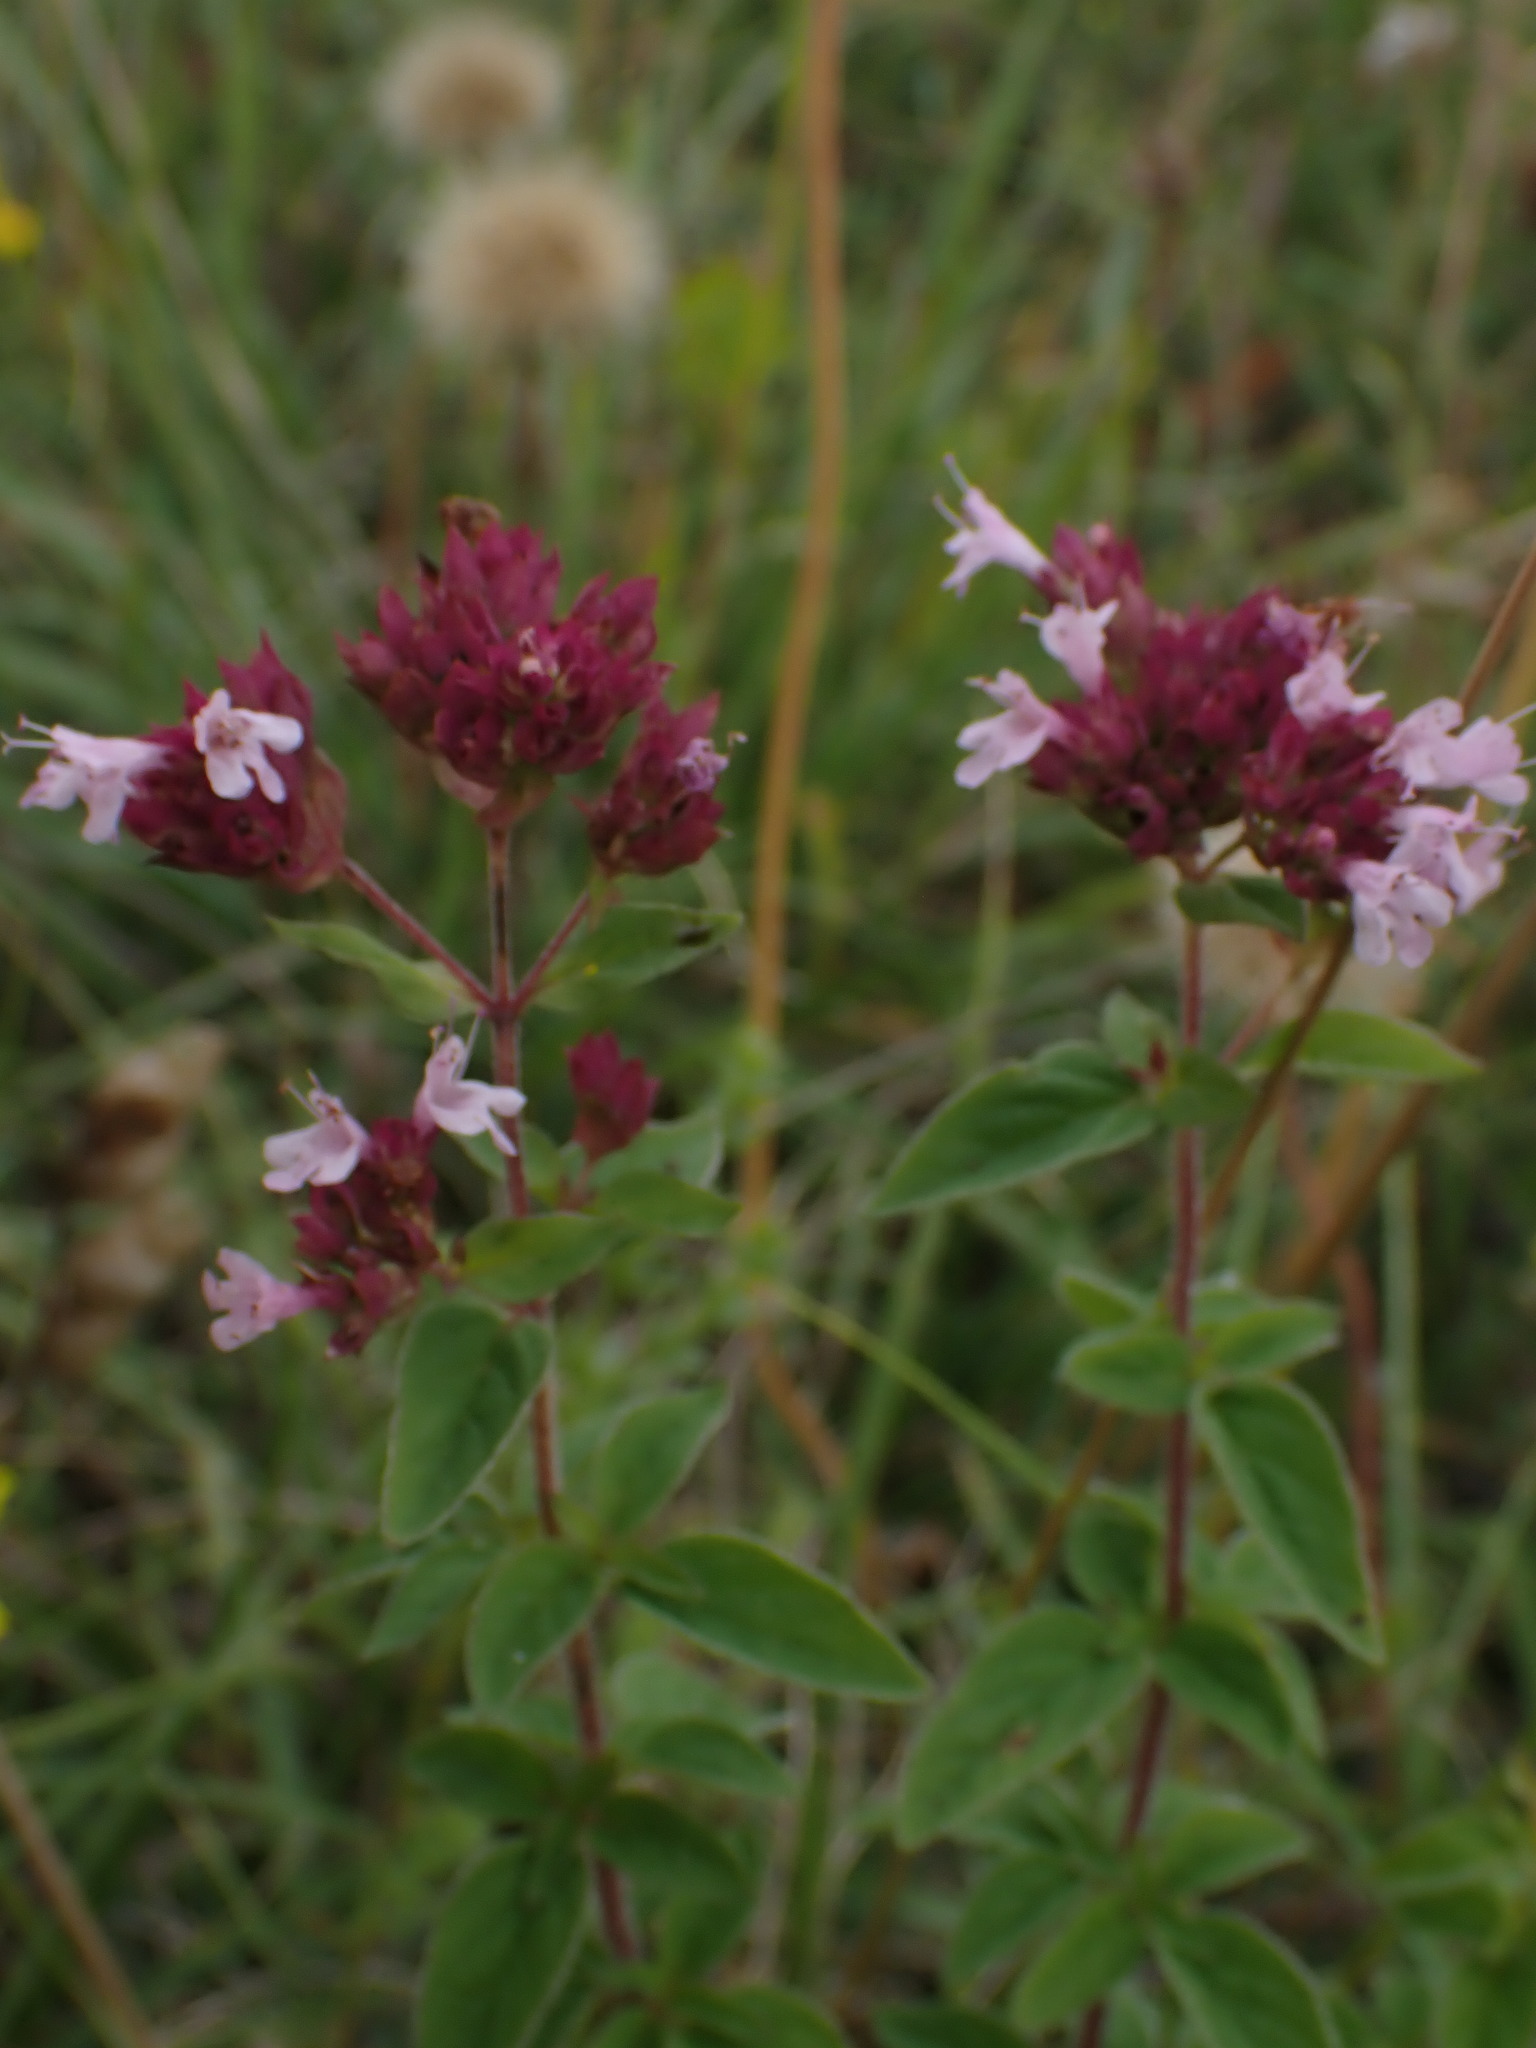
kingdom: Plantae
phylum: Tracheophyta
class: Magnoliopsida
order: Lamiales
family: Lamiaceae
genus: Origanum
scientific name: Origanum vulgare
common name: Wild marjoram
